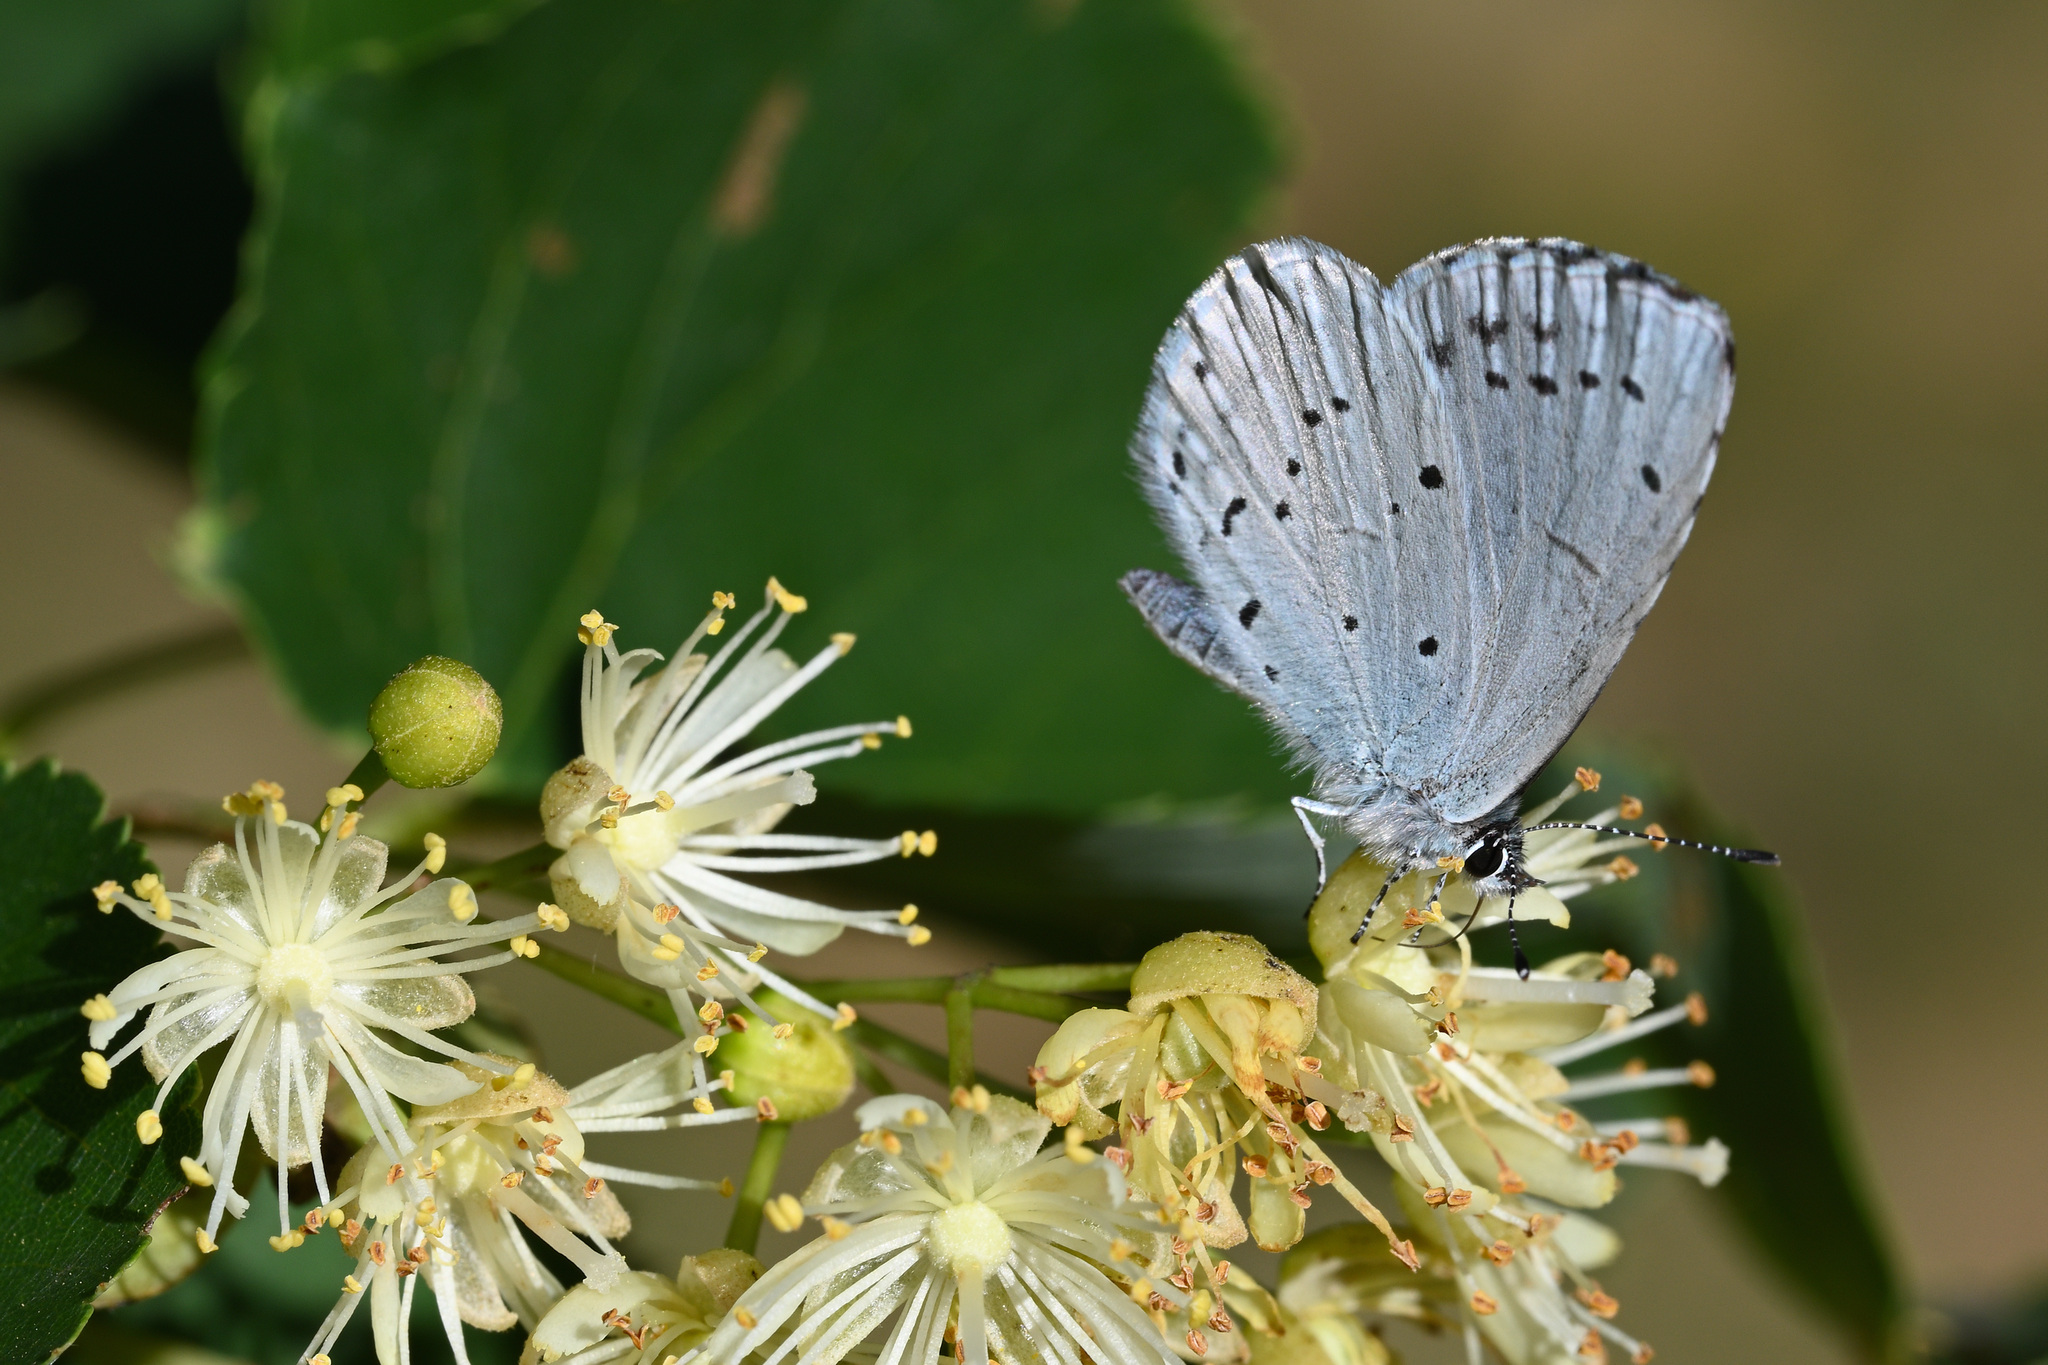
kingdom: Animalia
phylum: Arthropoda
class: Insecta
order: Lepidoptera
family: Lycaenidae
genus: Celastrina
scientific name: Celastrina argiolus
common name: Holly blue
